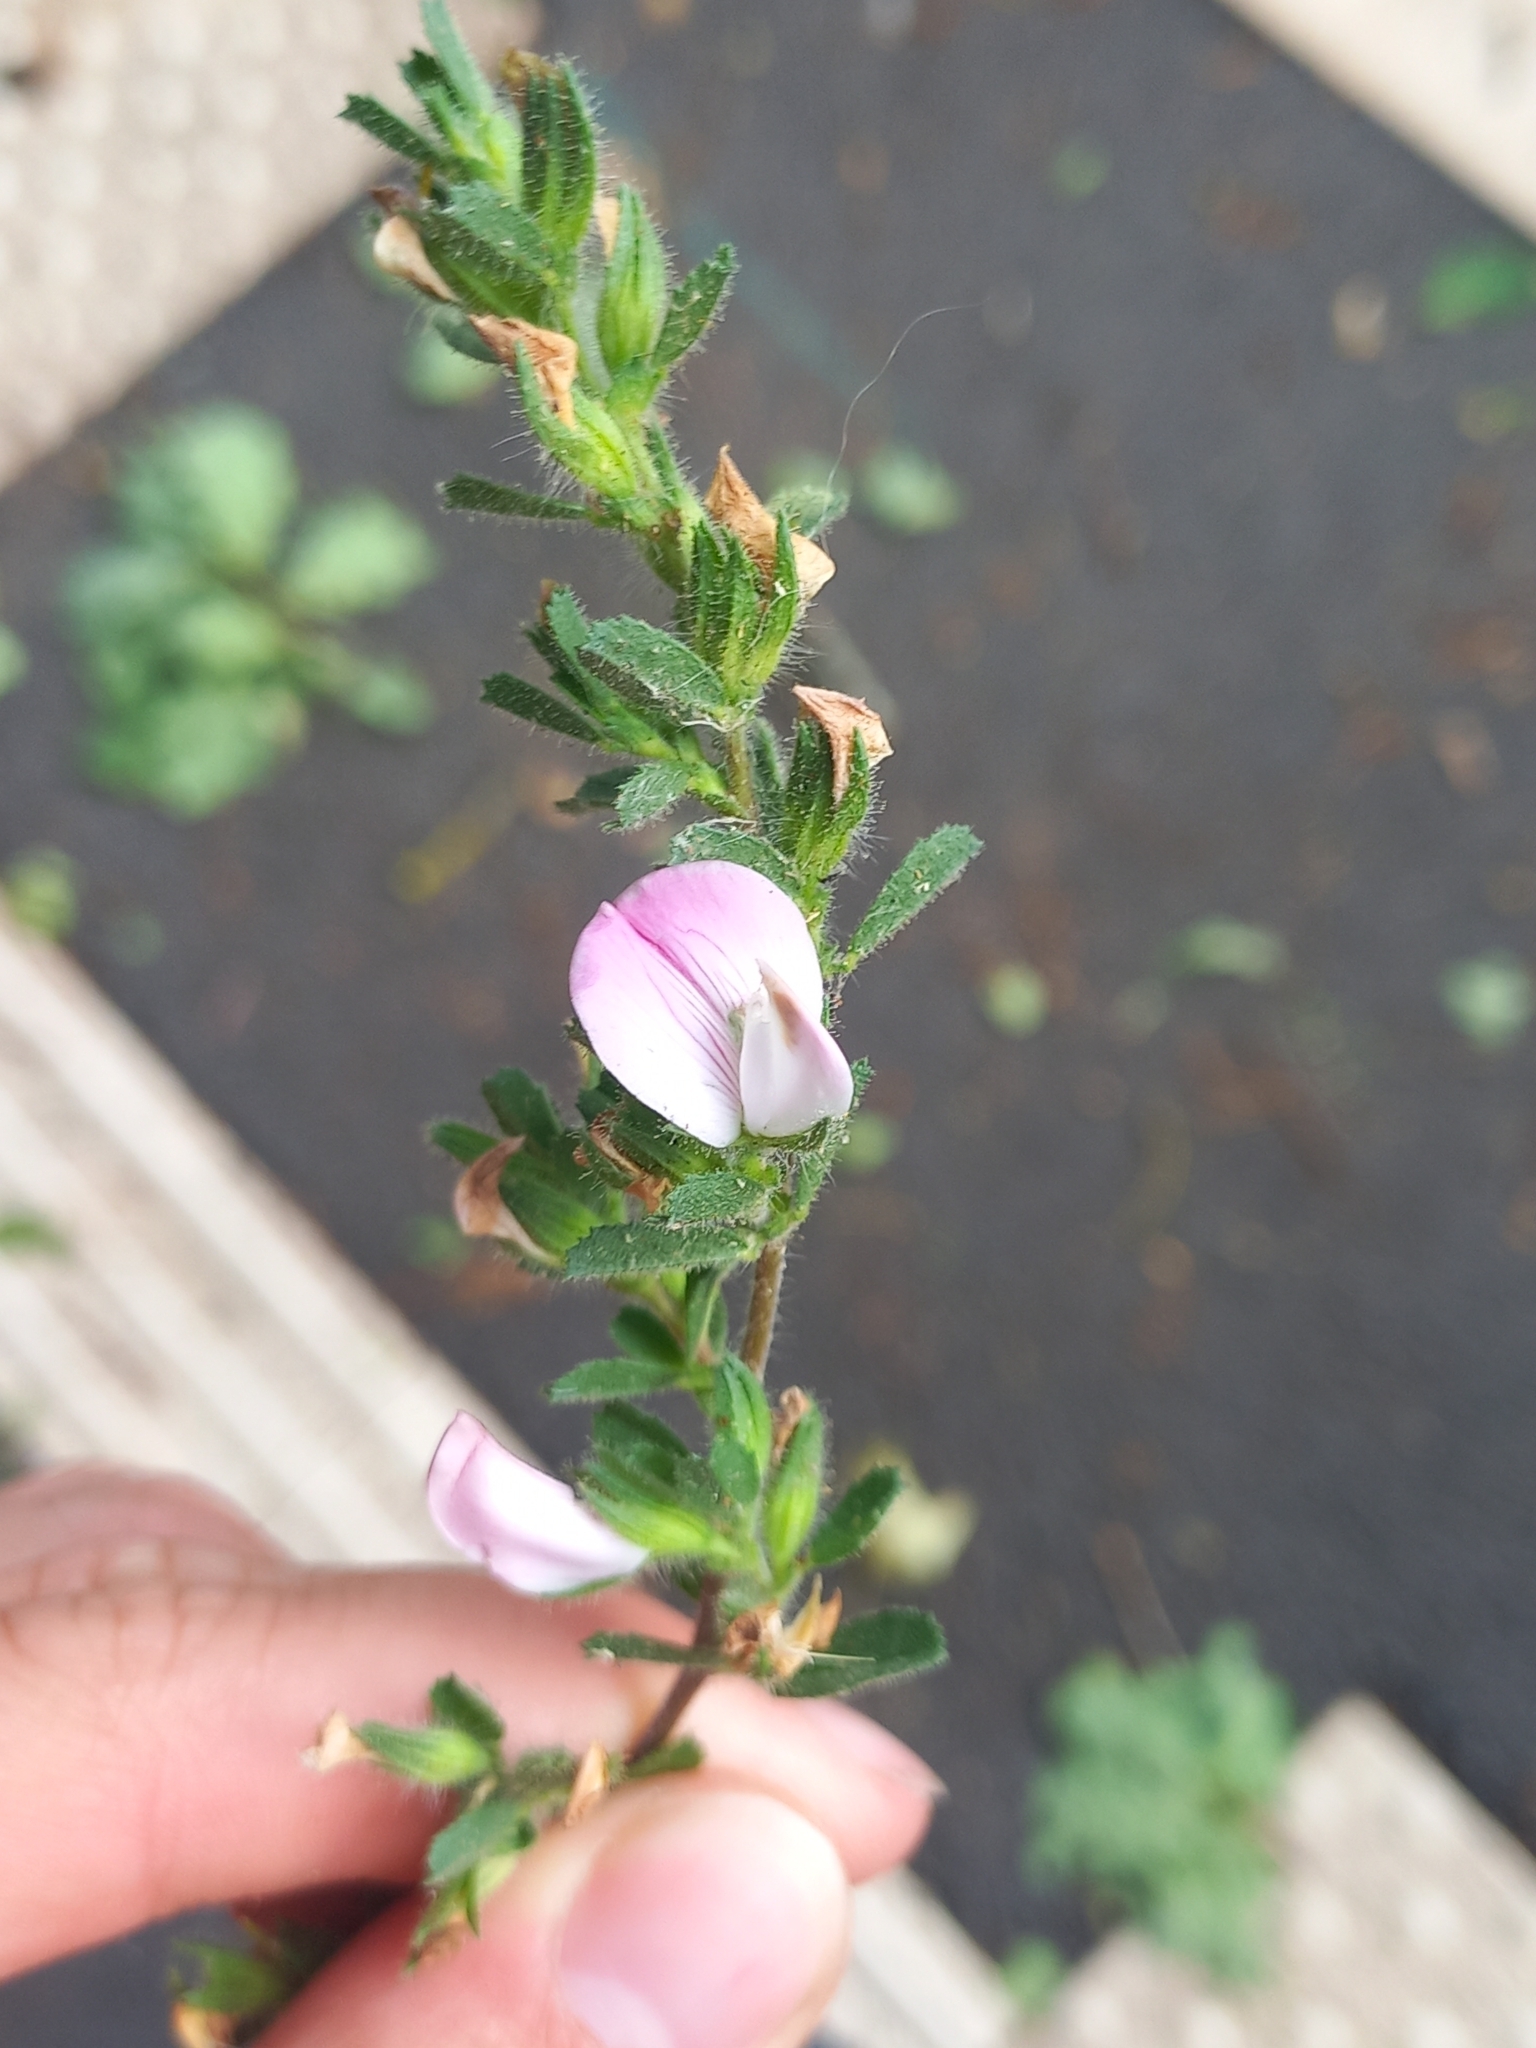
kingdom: Plantae
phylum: Tracheophyta
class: Magnoliopsida
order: Fabales
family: Fabaceae
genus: Ononis
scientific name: Ononis spinosa
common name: Spiny restharrow
